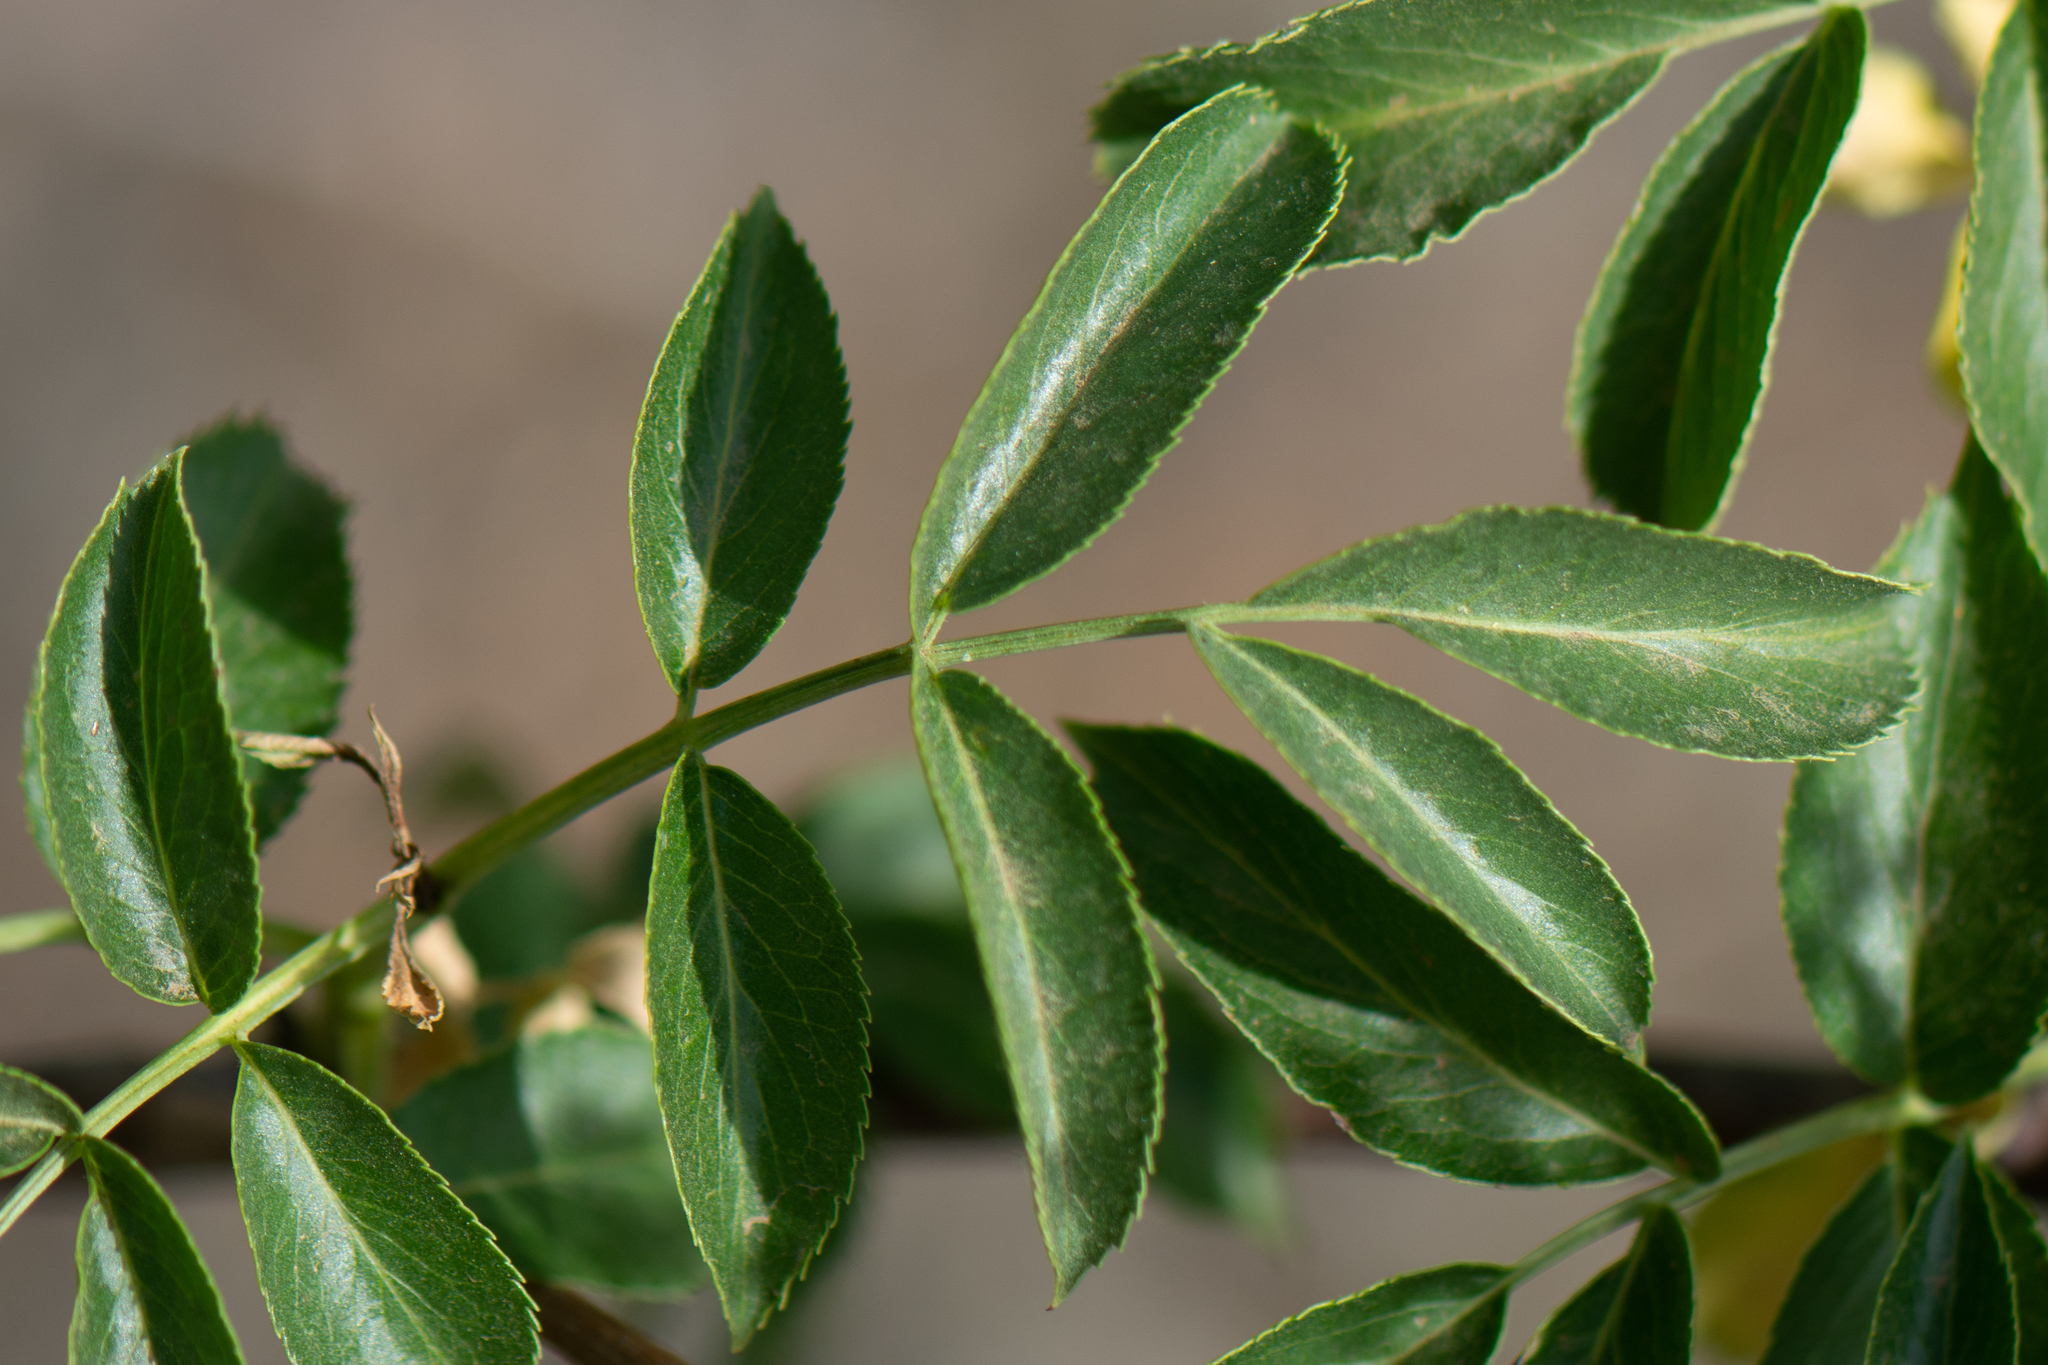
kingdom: Plantae
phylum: Tracheophyta
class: Magnoliopsida
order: Dipsacales
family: Viburnaceae
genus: Sambucus
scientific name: Sambucus cerulea
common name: Blue elder
